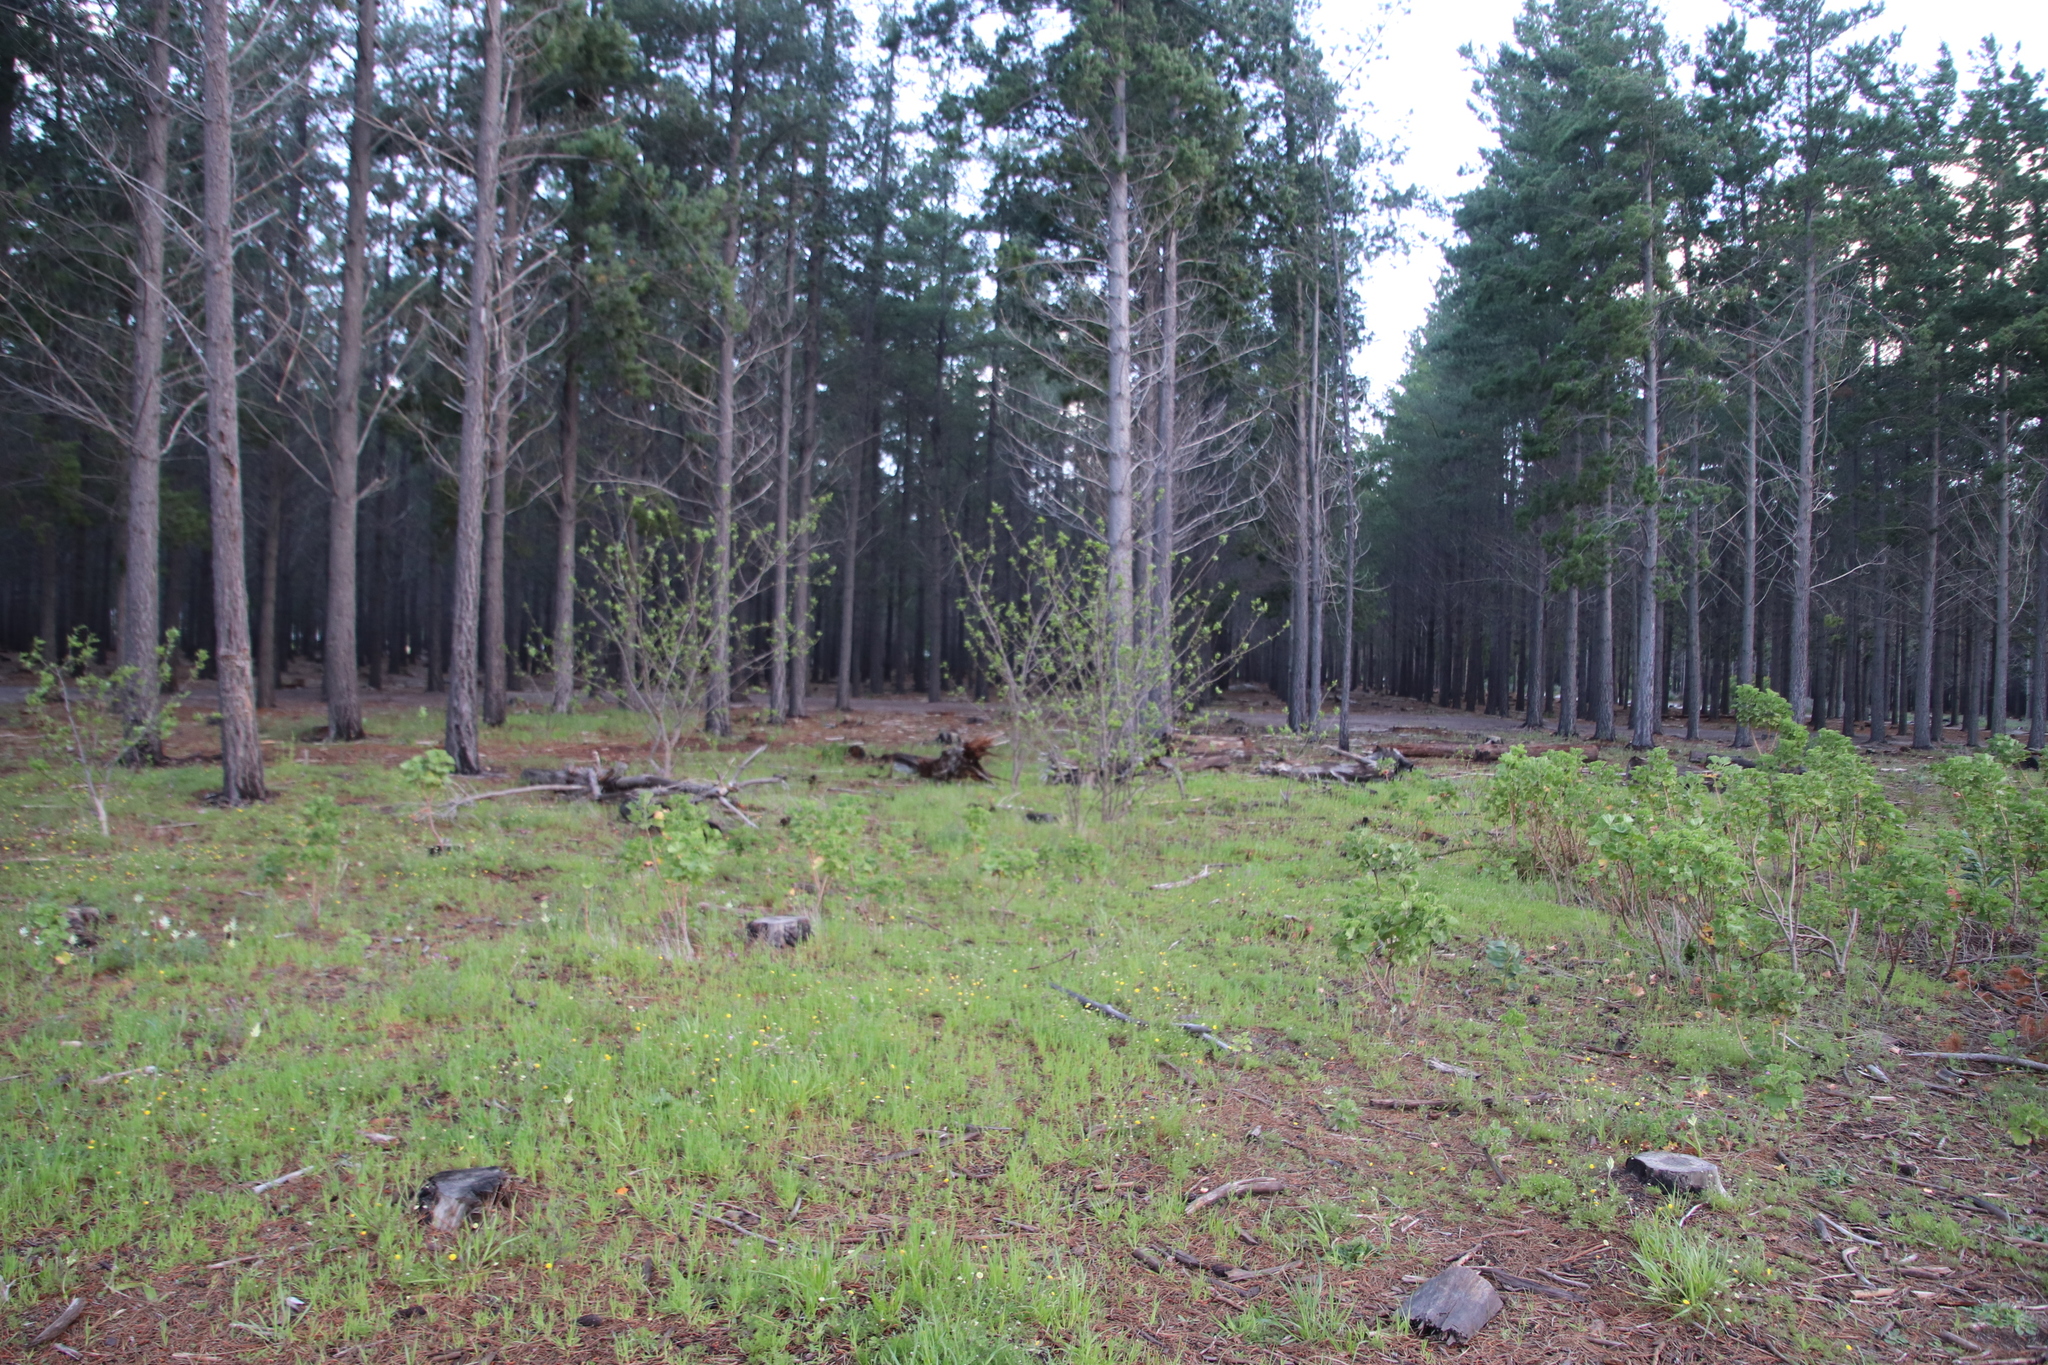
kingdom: Plantae
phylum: Tracheophyta
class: Magnoliopsida
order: Fabales
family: Fabaceae
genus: Robinia
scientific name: Robinia pseudoacacia
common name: Black locust
